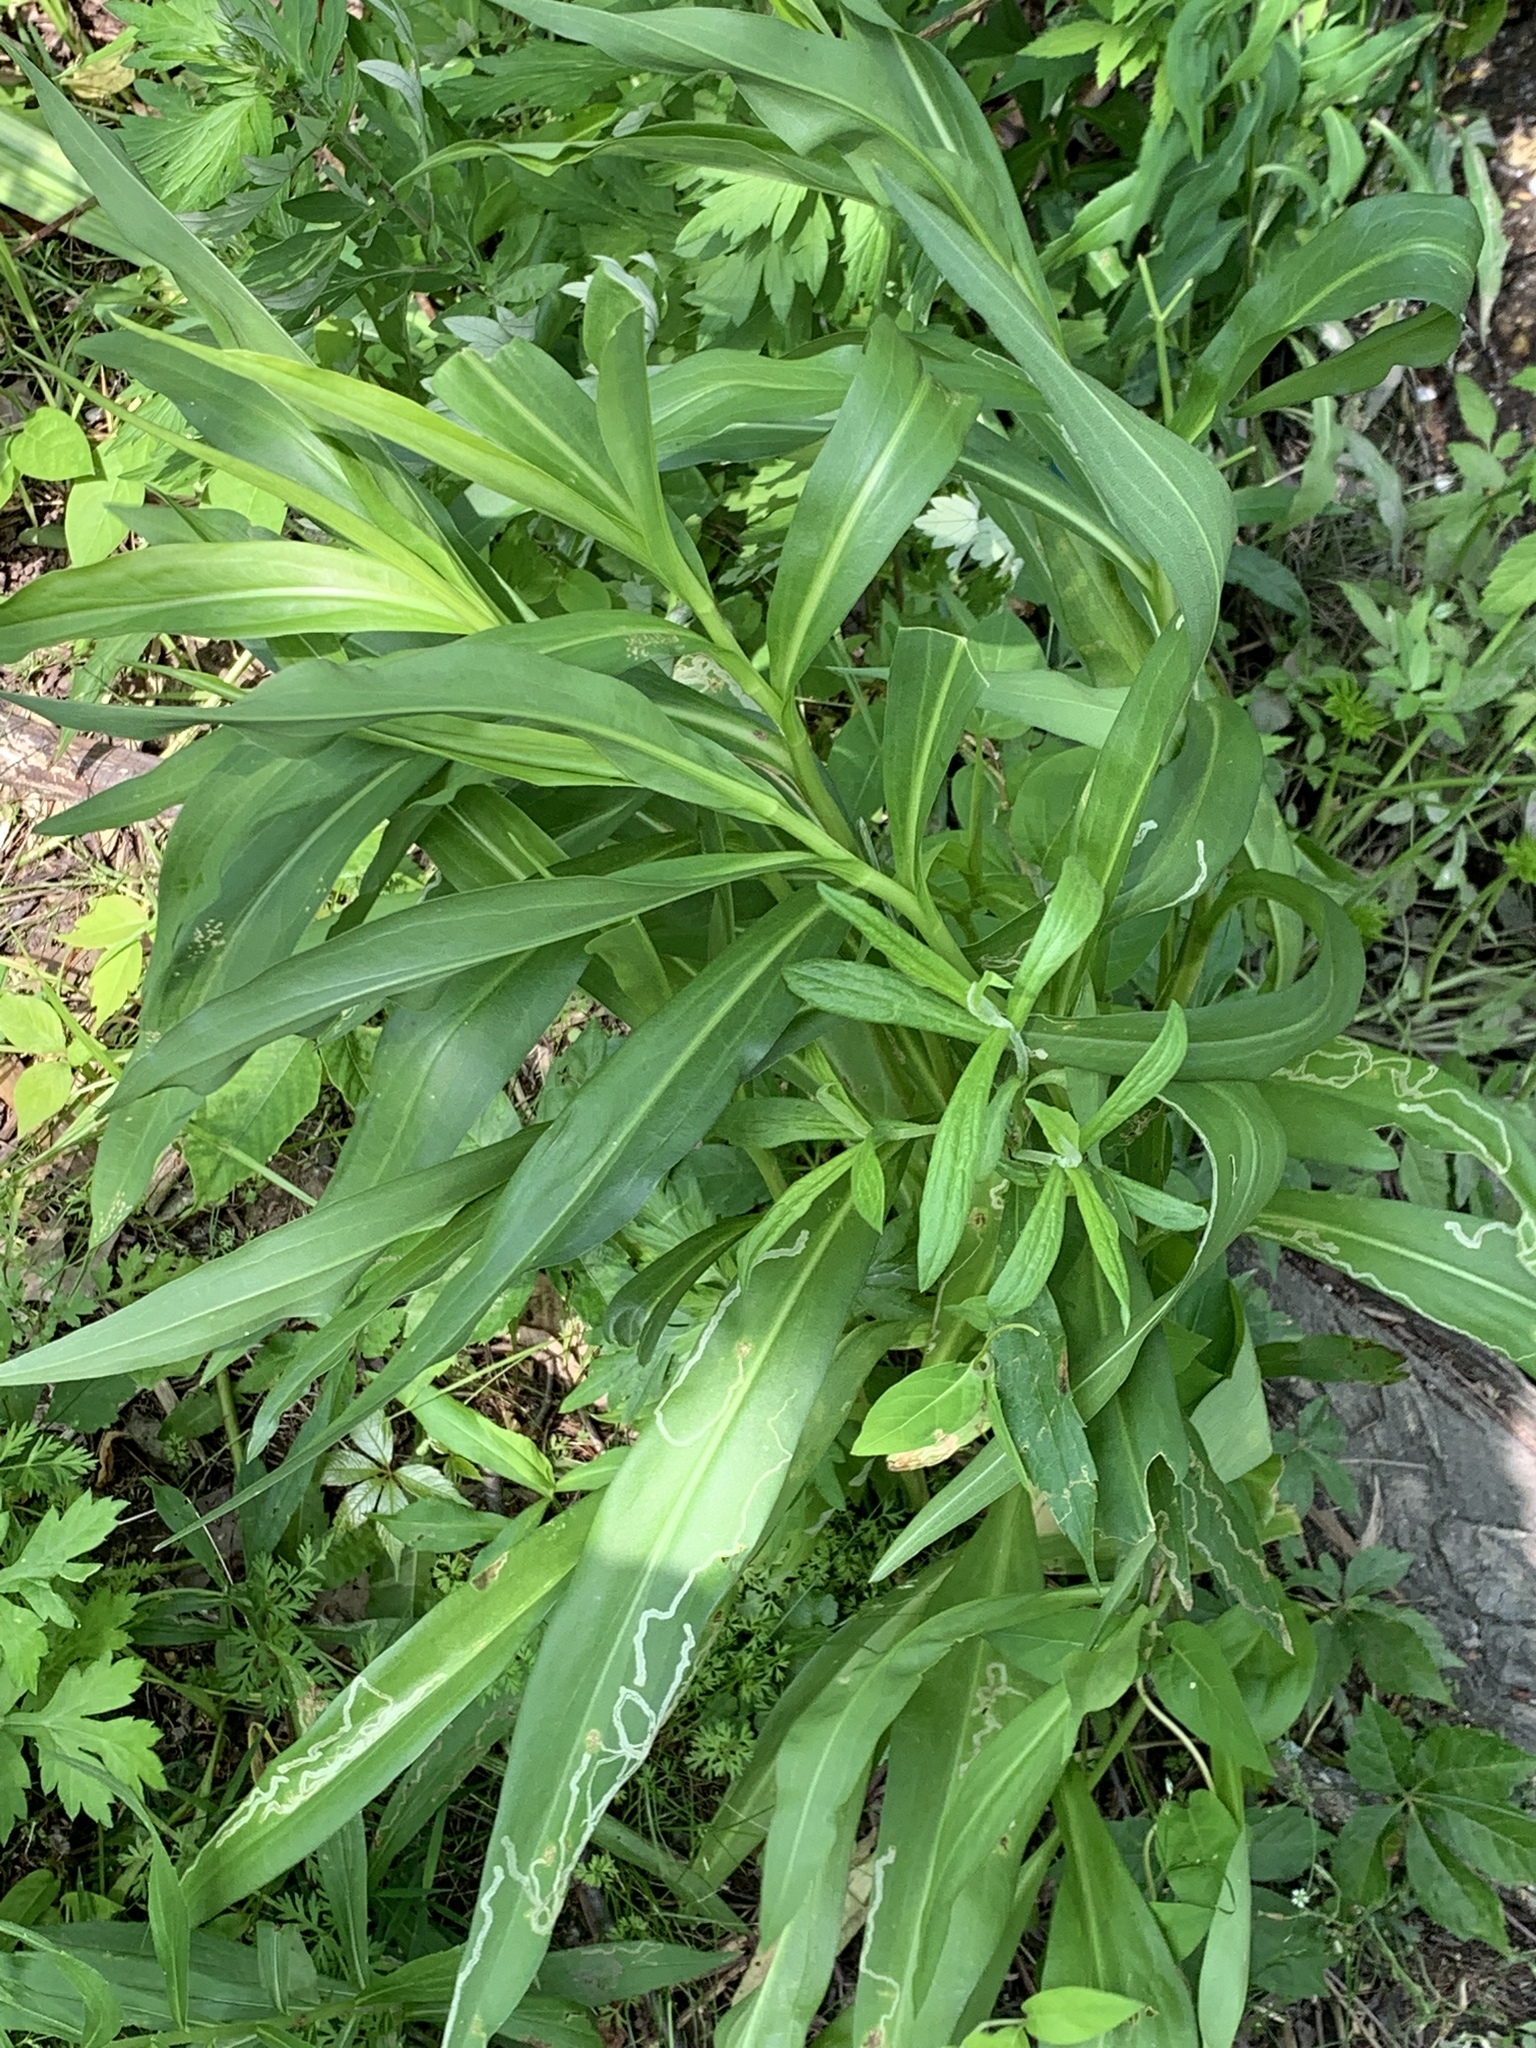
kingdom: Plantae
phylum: Tracheophyta
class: Magnoliopsida
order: Asterales
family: Asteraceae
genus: Solidago
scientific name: Solidago sempervirens
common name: Salt-marsh goldenrod
